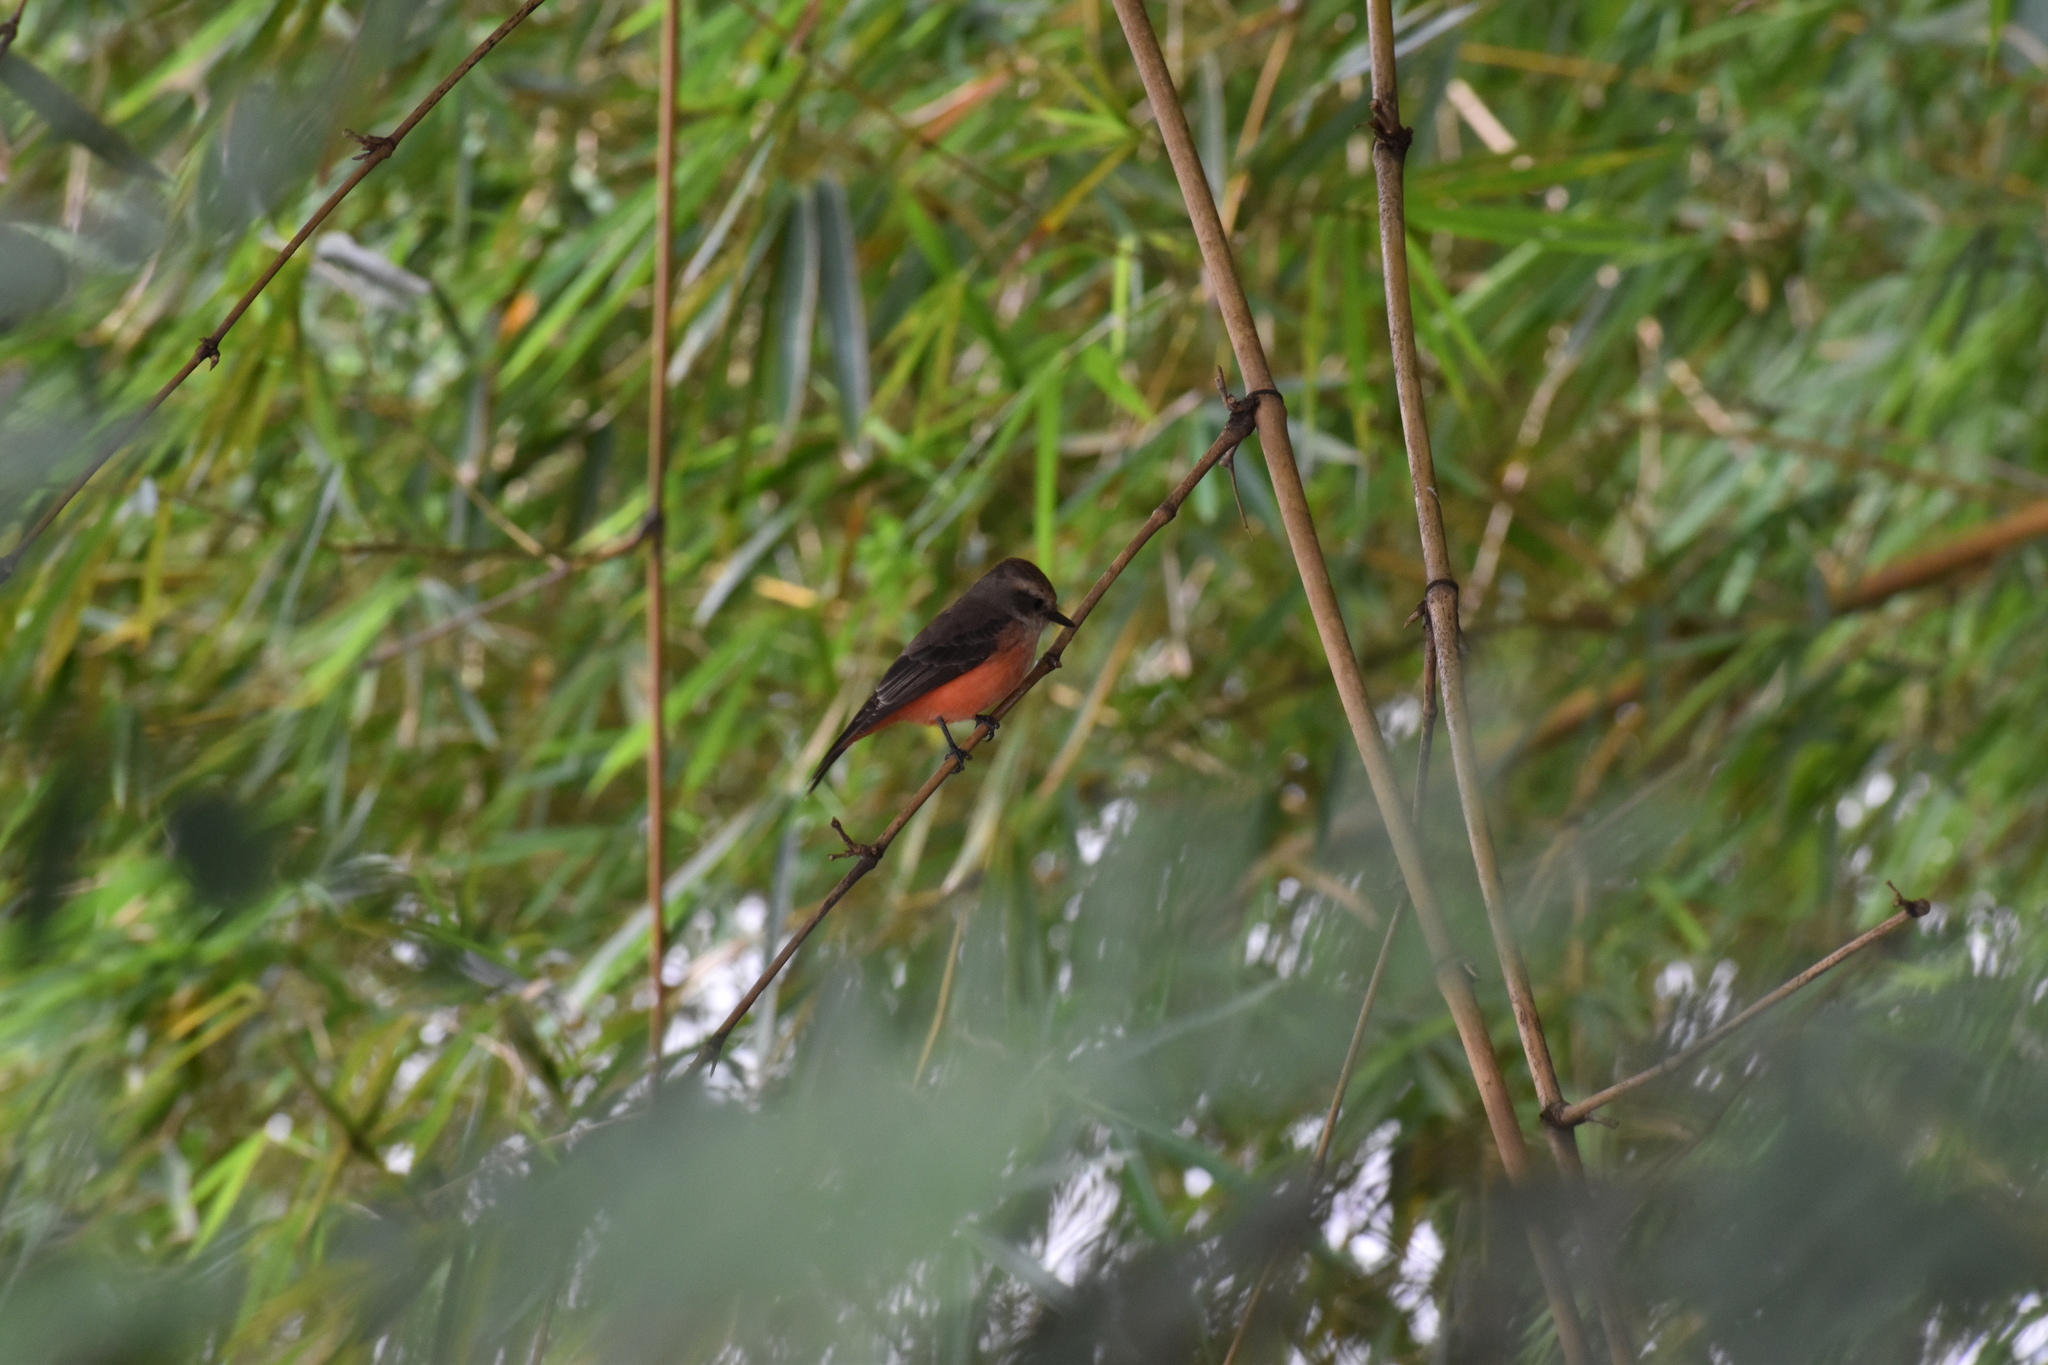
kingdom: Animalia
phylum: Chordata
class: Aves
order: Passeriformes
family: Tyrannidae
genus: Pyrocephalus
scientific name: Pyrocephalus rubinus
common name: Vermilion flycatcher
